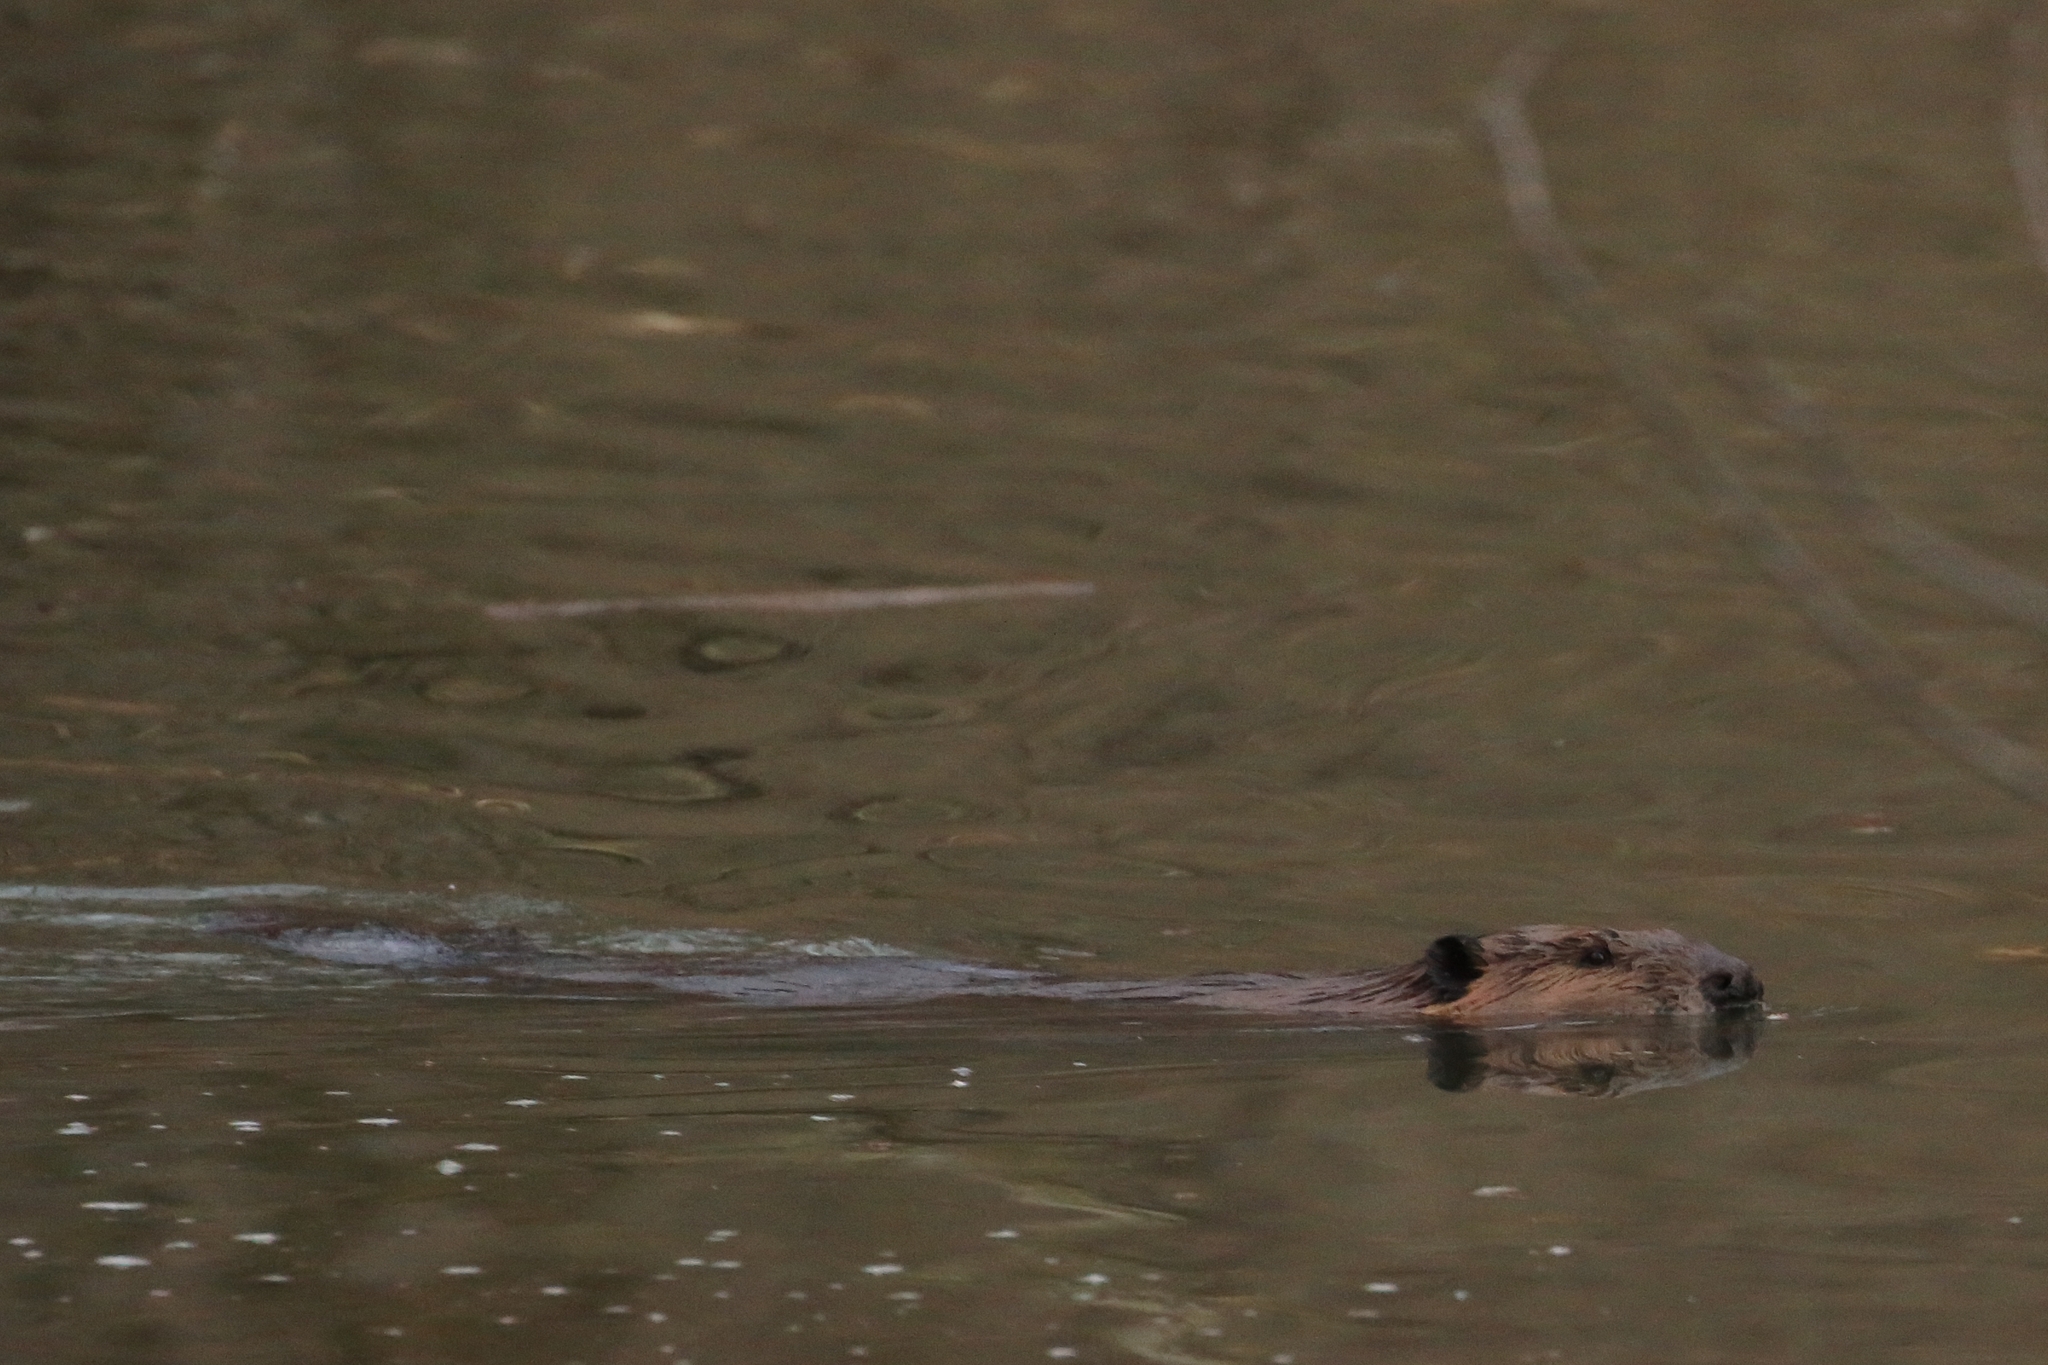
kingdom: Animalia
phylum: Chordata
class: Mammalia
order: Rodentia
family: Castoridae
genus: Castor
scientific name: Castor canadensis
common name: American beaver
